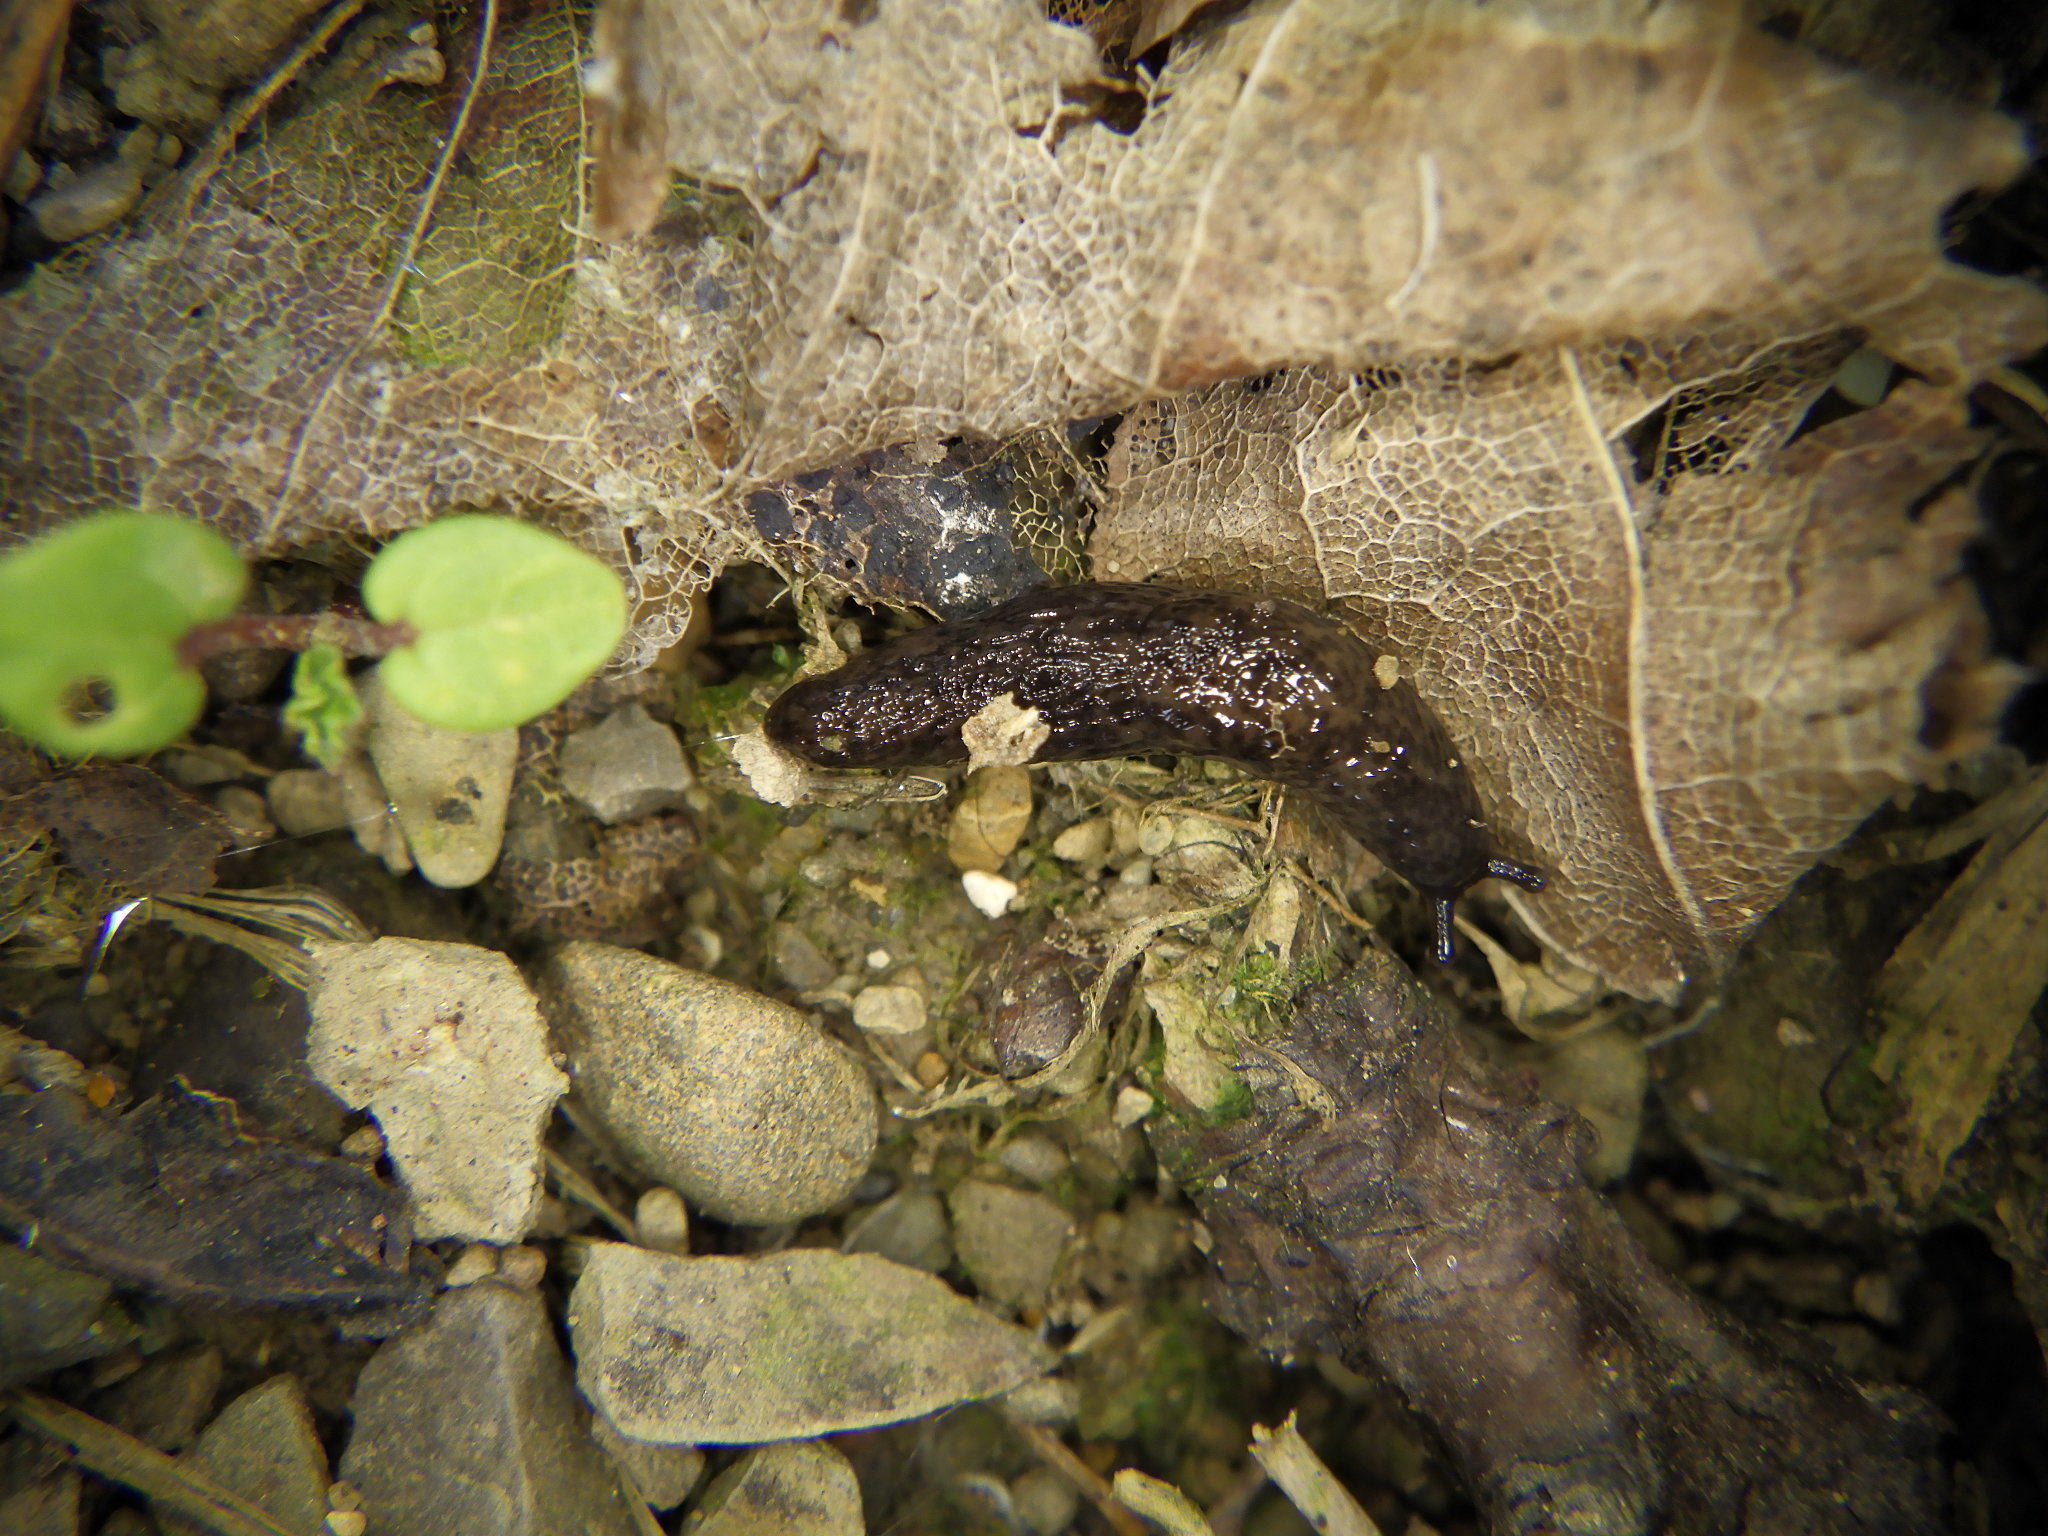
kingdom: Animalia
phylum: Mollusca
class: Gastropoda
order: Stylommatophora
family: Agriolimacidae
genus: Deroceras
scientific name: Deroceras
